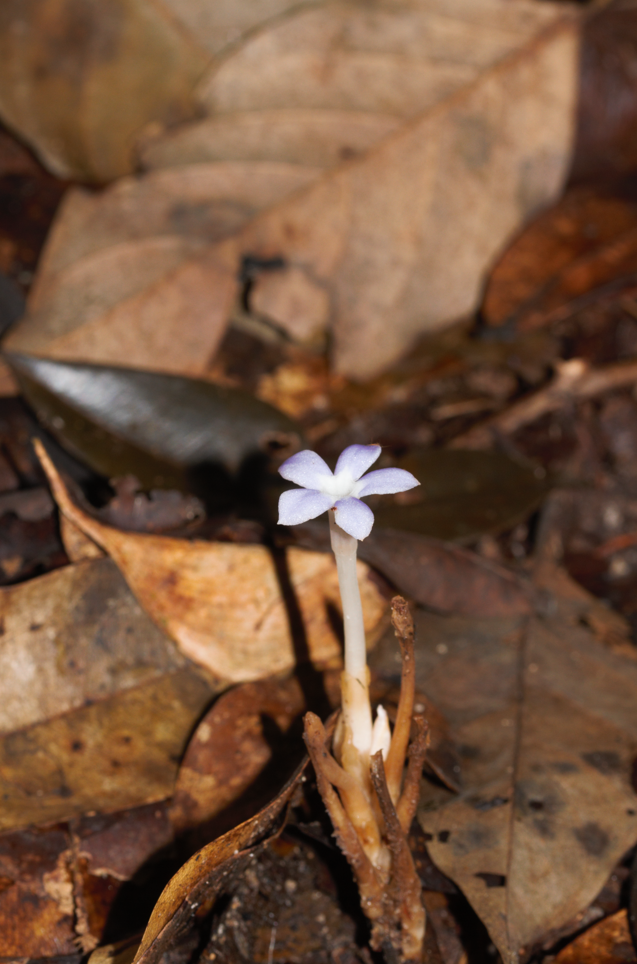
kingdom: Plantae
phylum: Tracheophyta
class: Magnoliopsida
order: Gentianales
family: Gentianaceae
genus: Voyria
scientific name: Voyria caerulea
